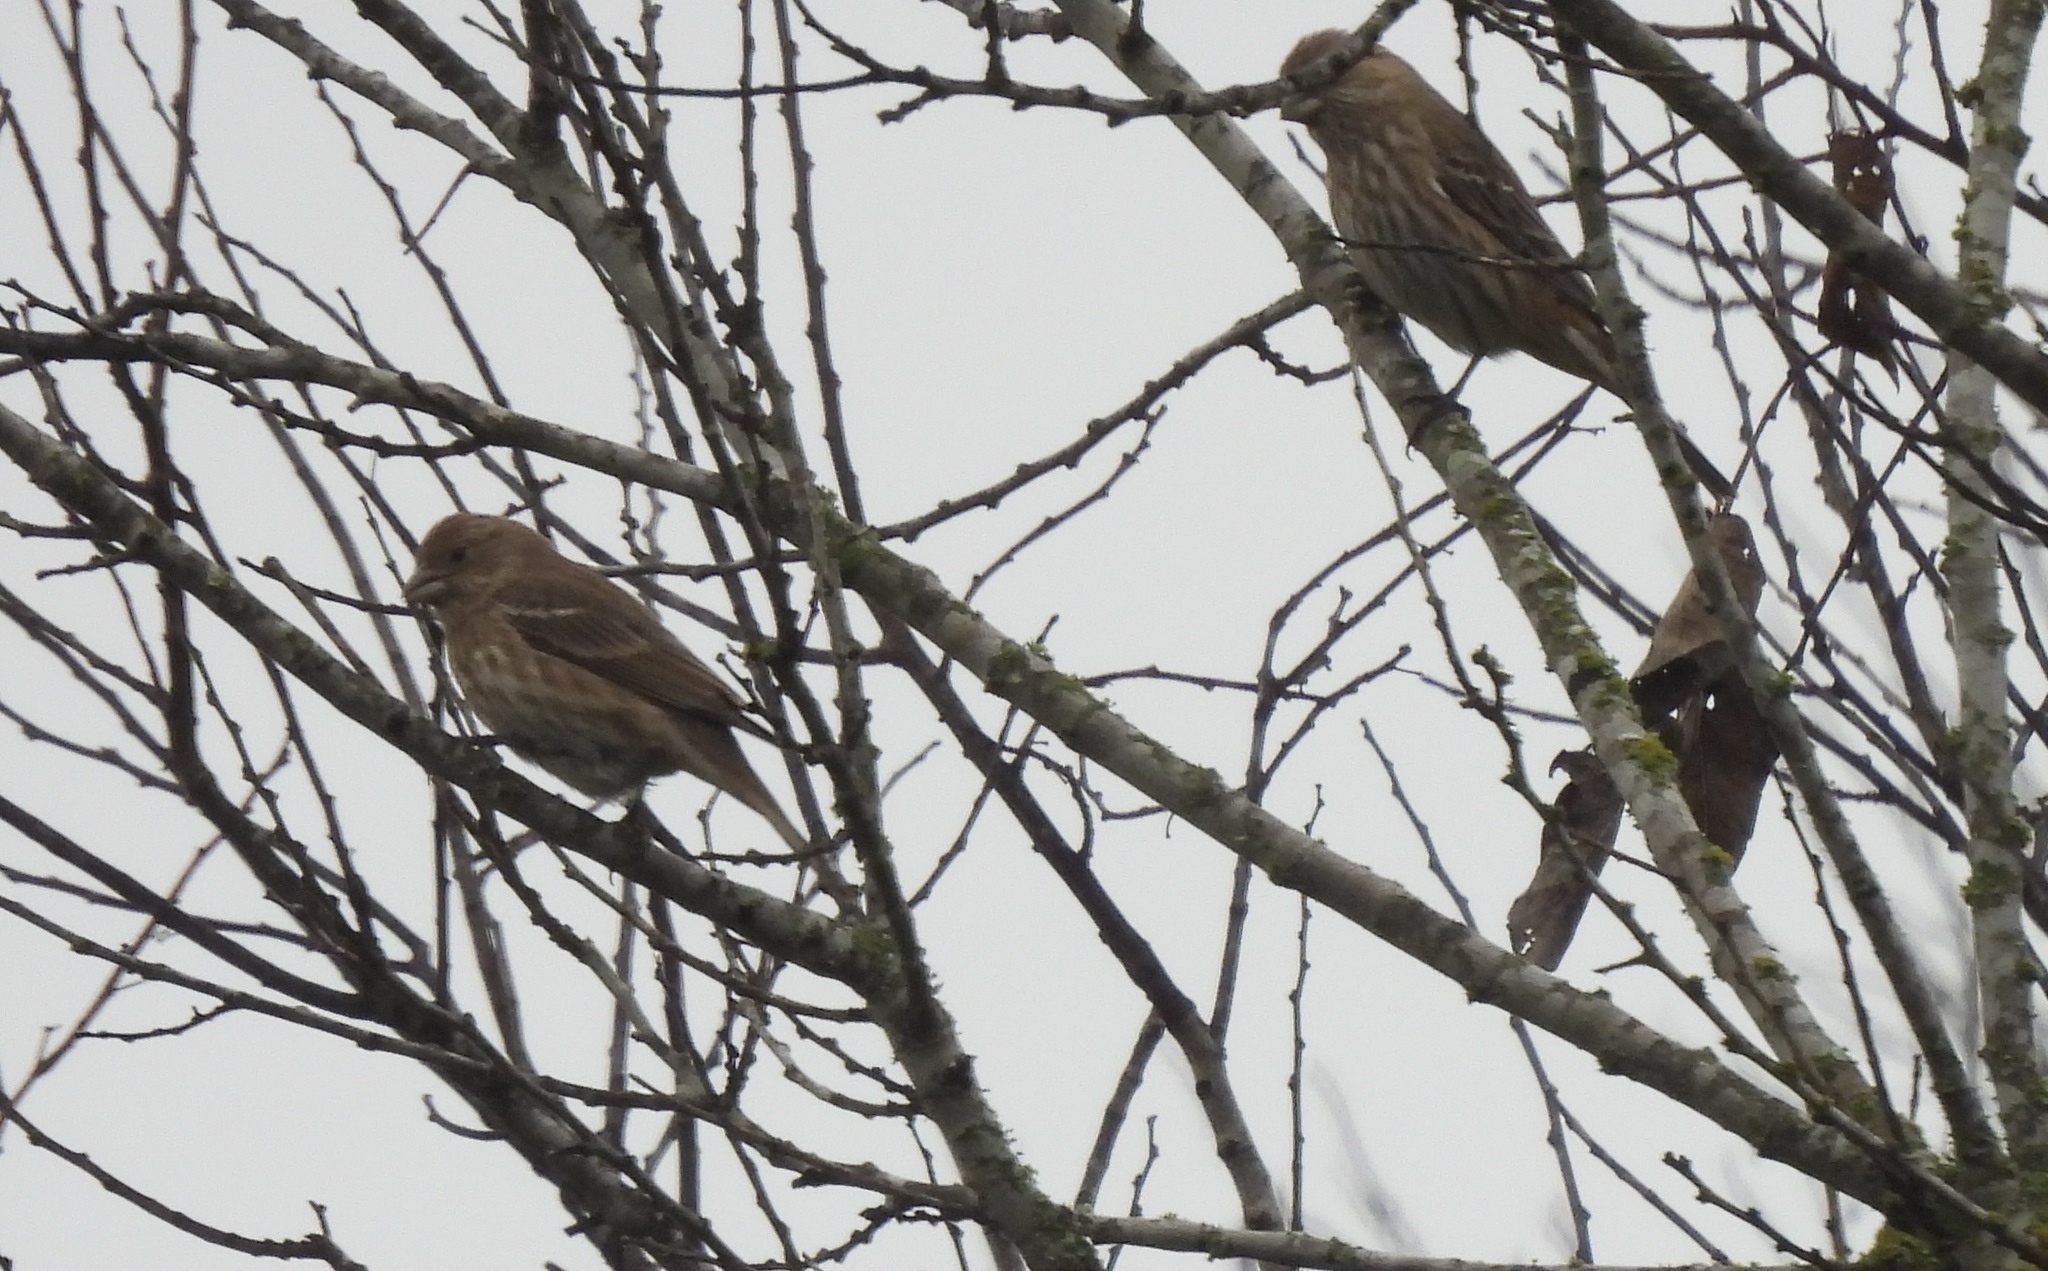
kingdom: Animalia
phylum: Chordata
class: Aves
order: Passeriformes
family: Fringillidae
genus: Haemorhous
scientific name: Haemorhous mexicanus
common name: House finch
